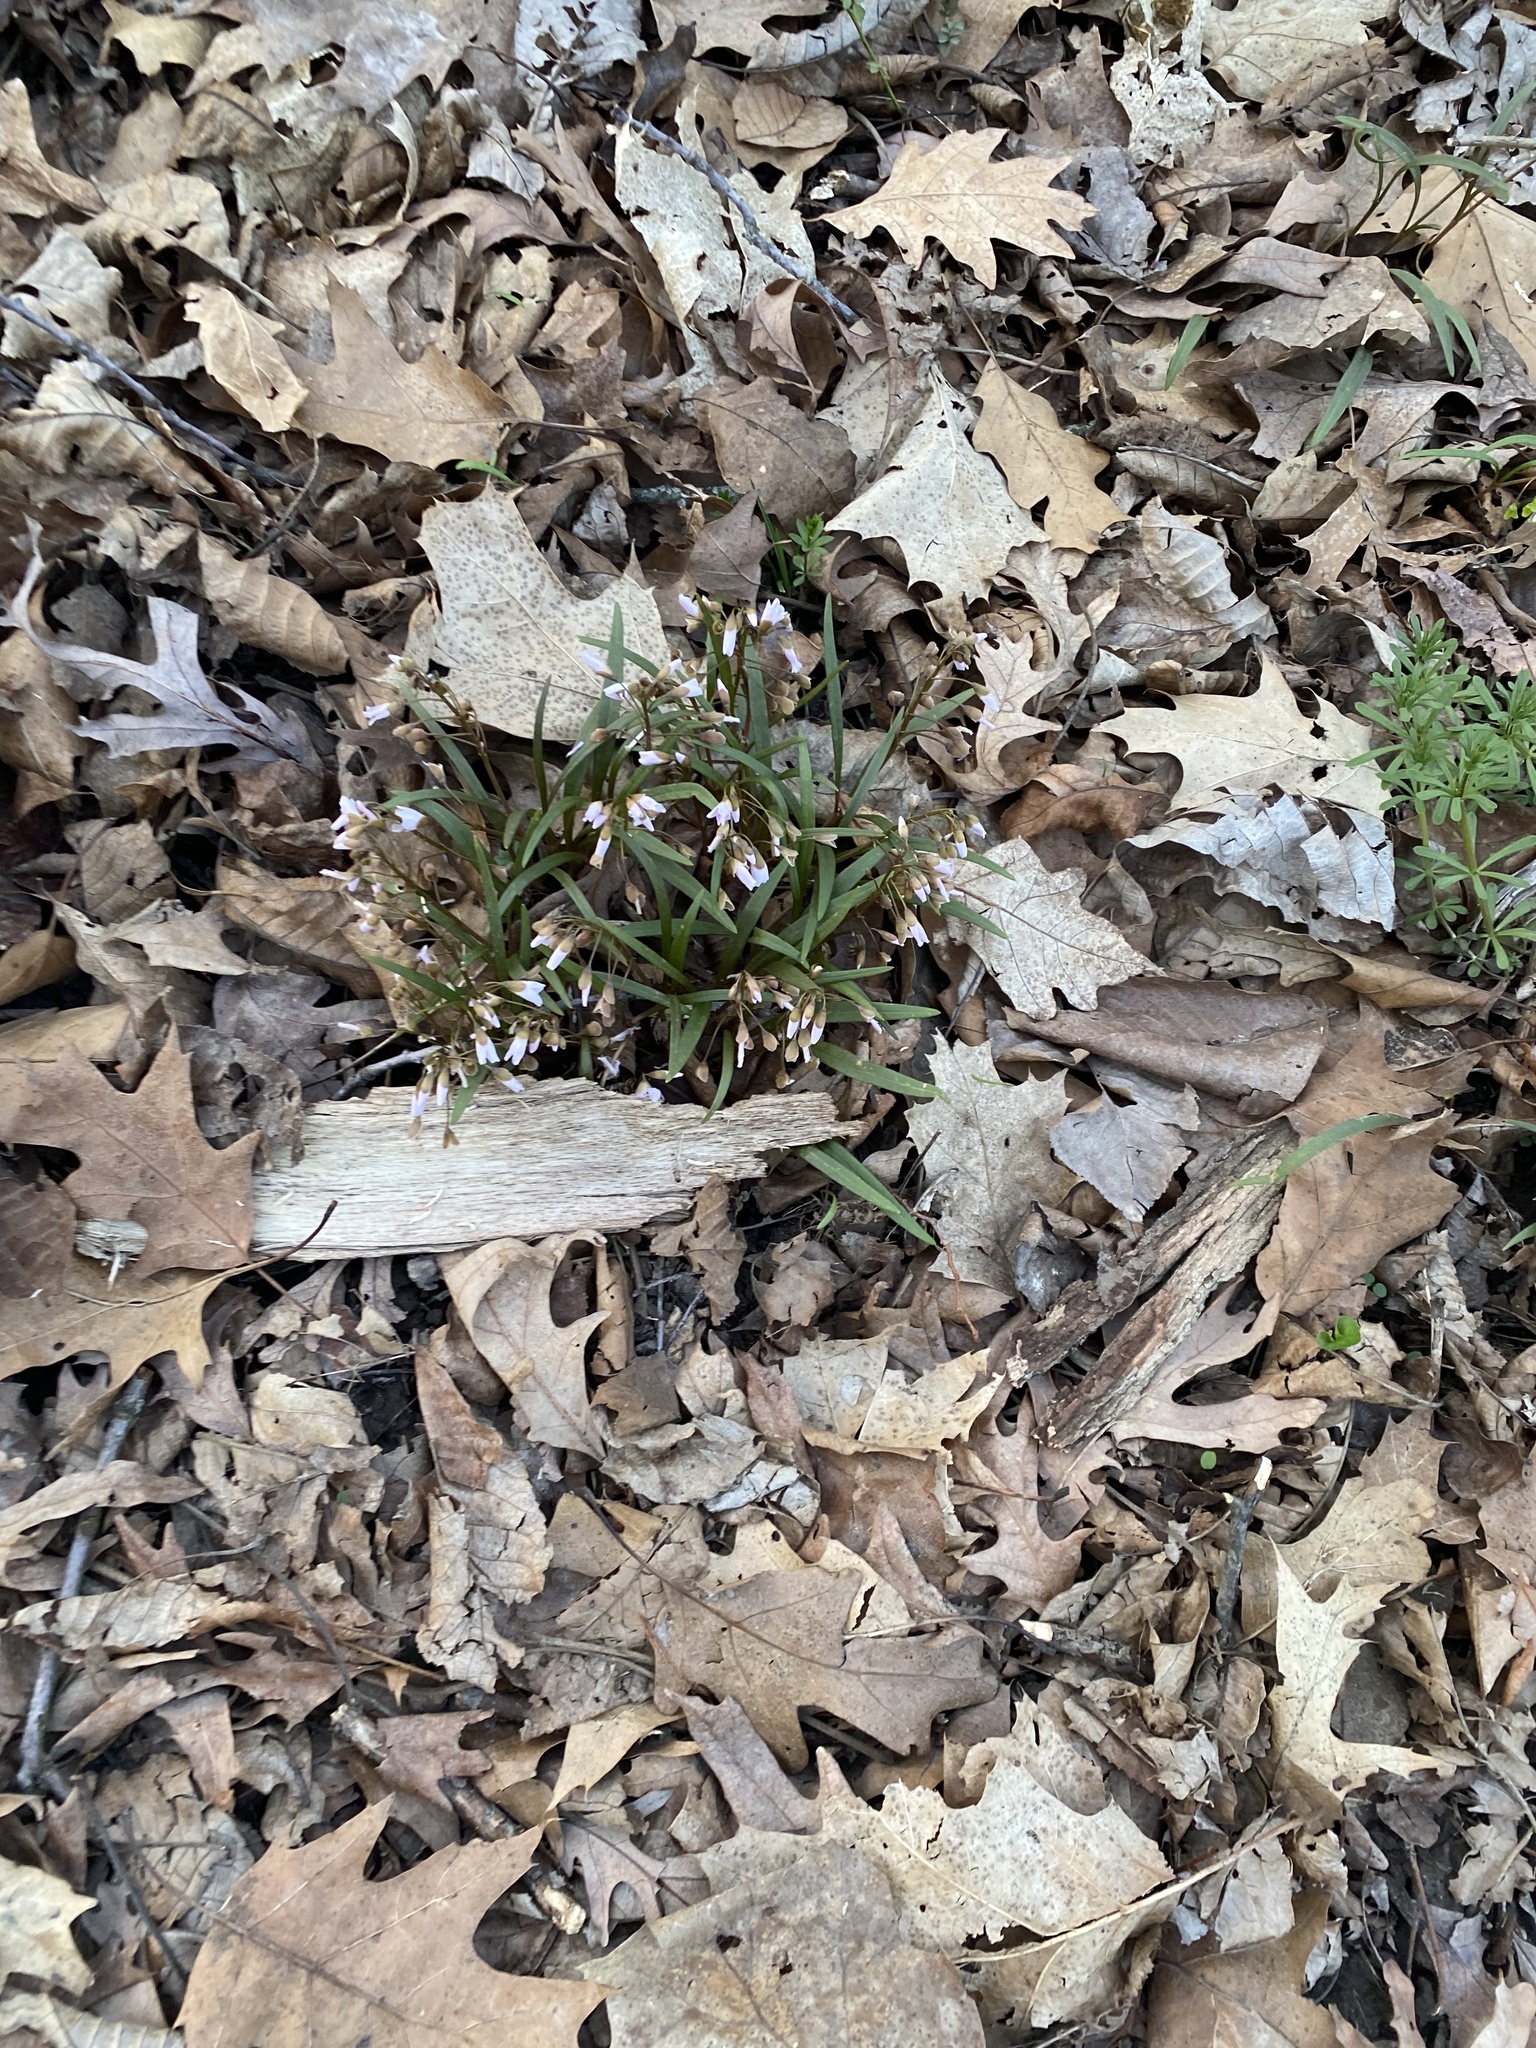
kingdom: Plantae
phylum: Tracheophyta
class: Magnoliopsida
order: Caryophyllales
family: Montiaceae
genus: Claytonia
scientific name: Claytonia virginica
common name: Virginia springbeauty
